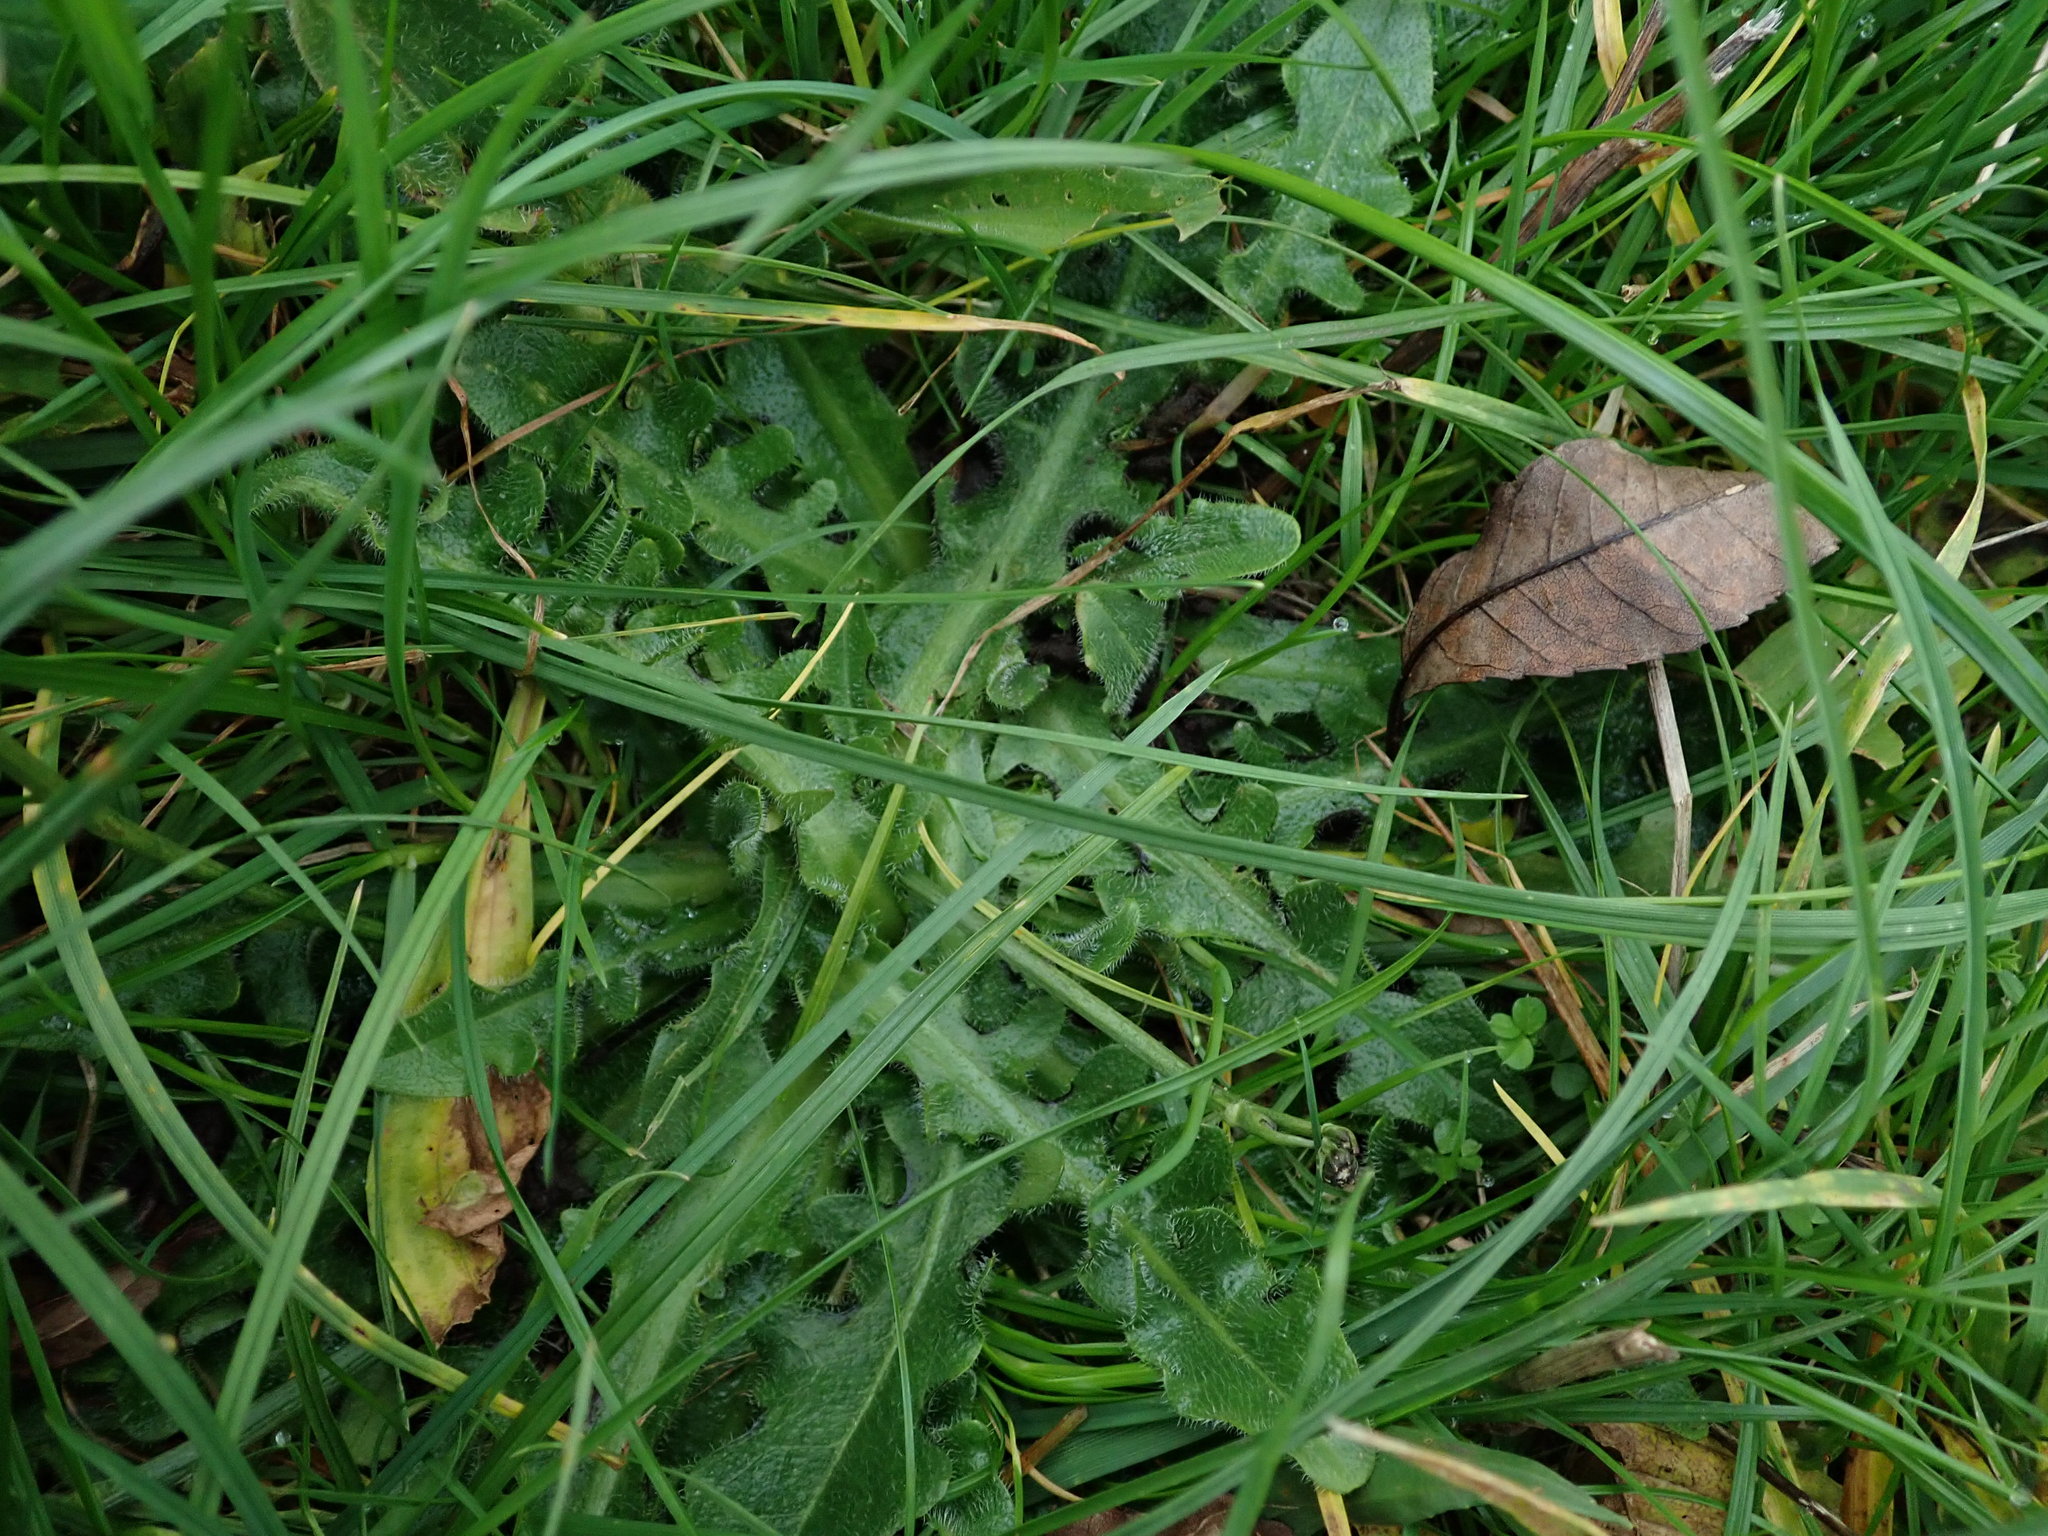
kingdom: Plantae
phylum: Tracheophyta
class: Magnoliopsida
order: Asterales
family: Asteraceae
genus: Hypochaeris
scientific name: Hypochaeris radicata
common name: Flatweed
